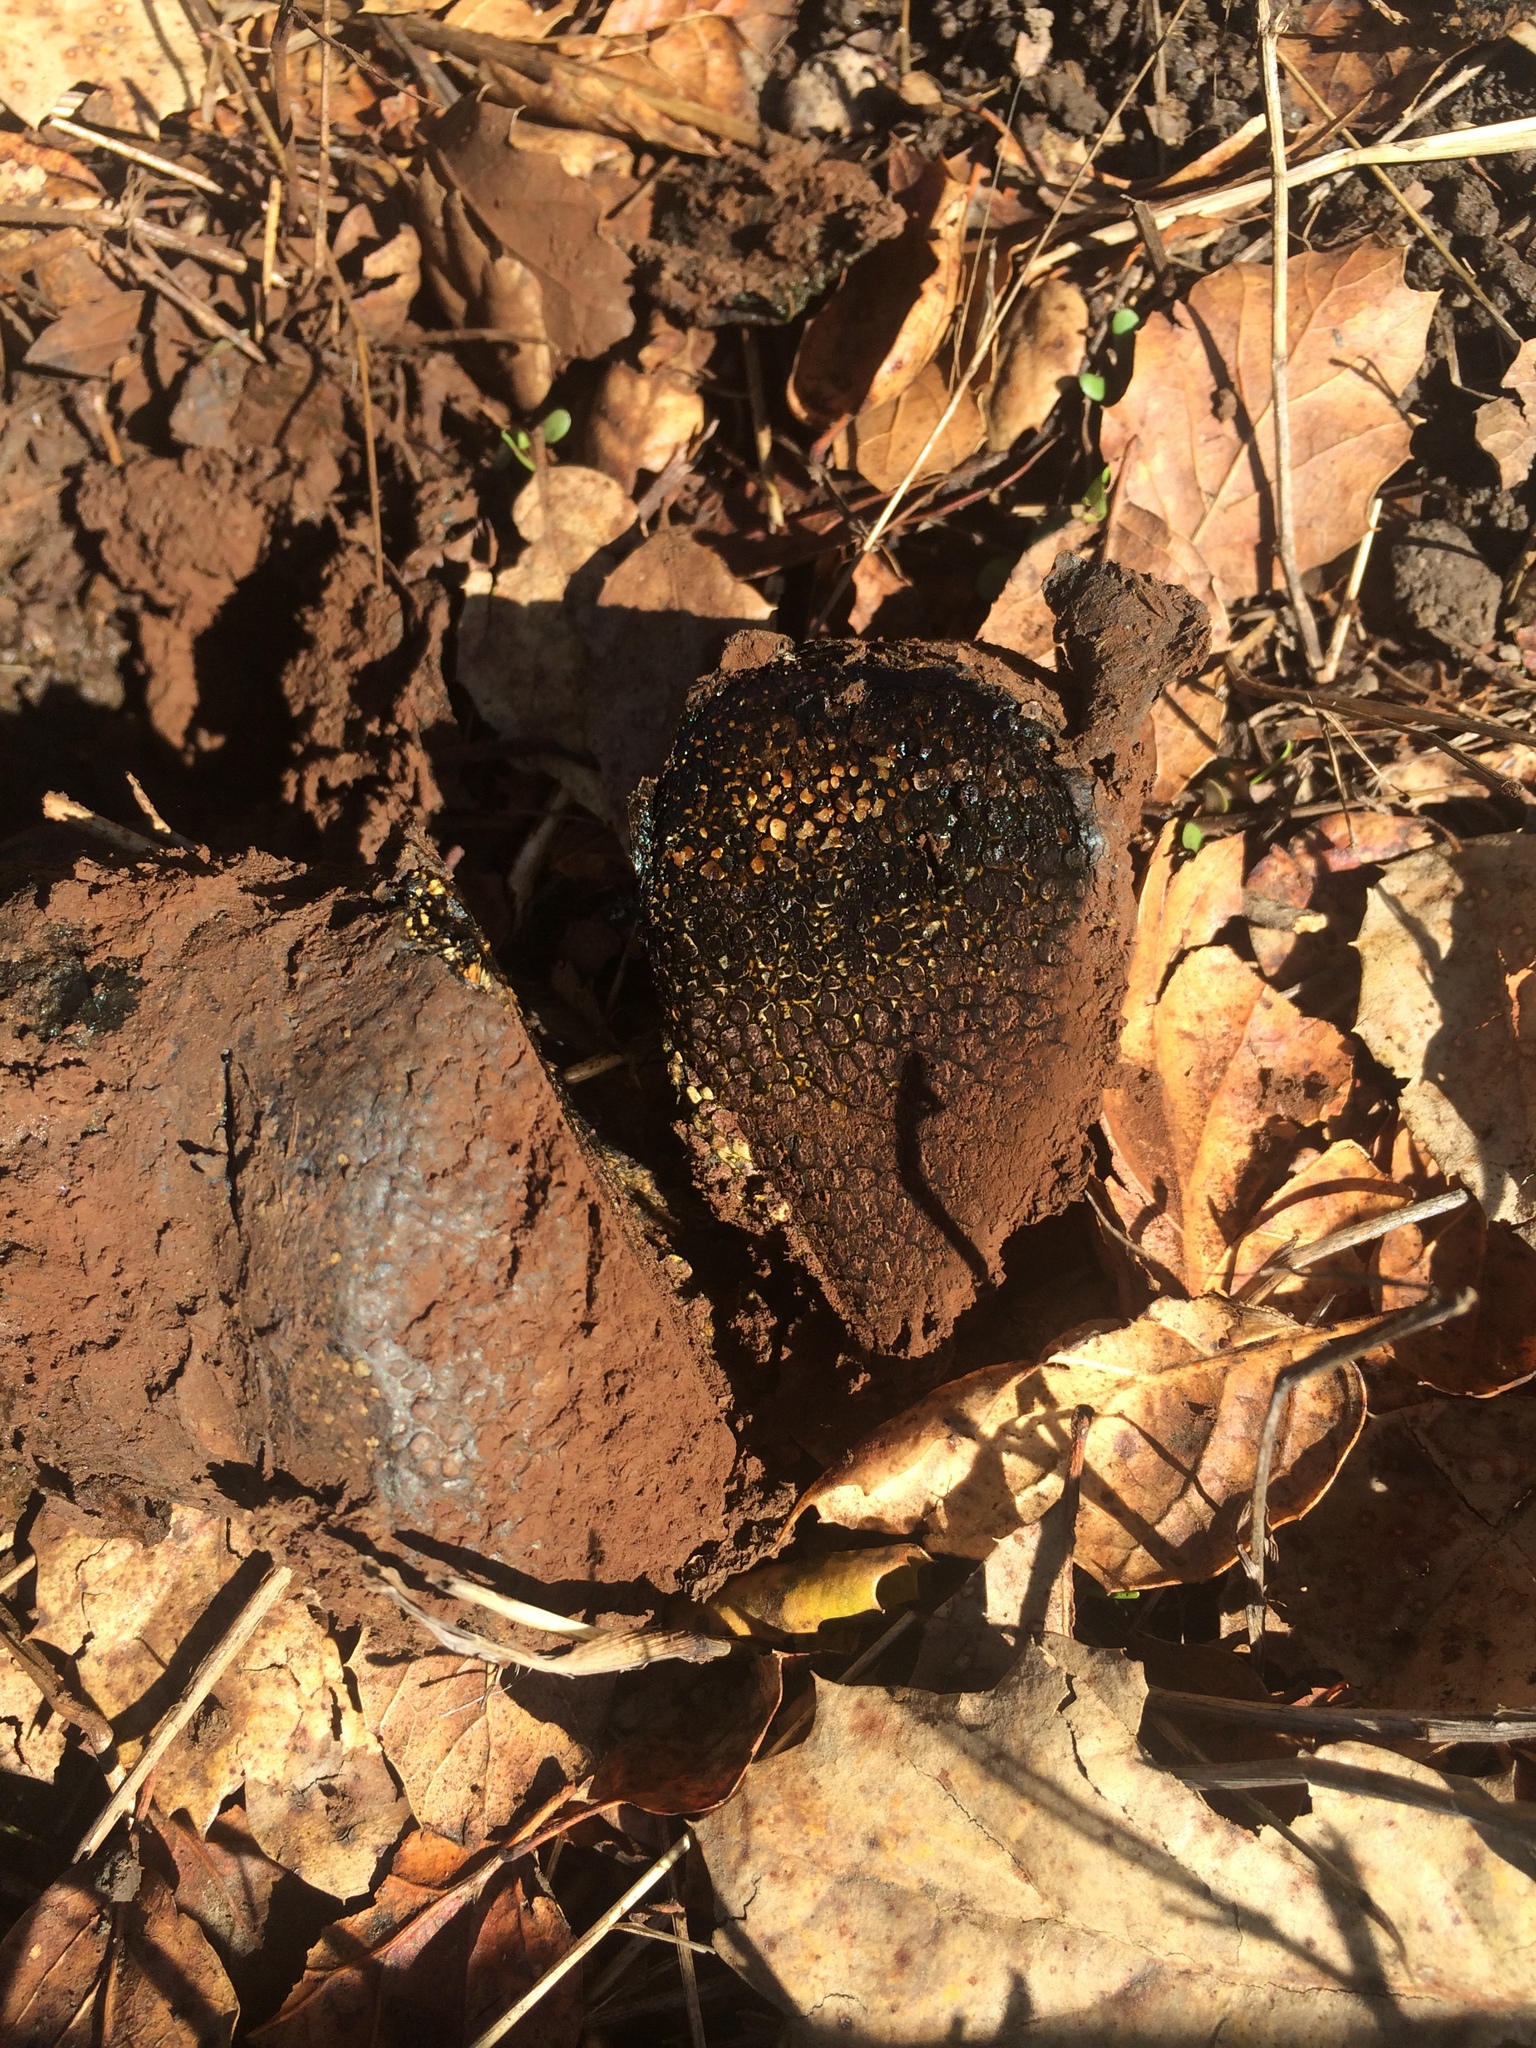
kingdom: Fungi
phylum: Basidiomycota
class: Agaricomycetes
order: Boletales
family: Sclerodermataceae
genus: Pisolithus
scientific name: Pisolithus tinctorius
